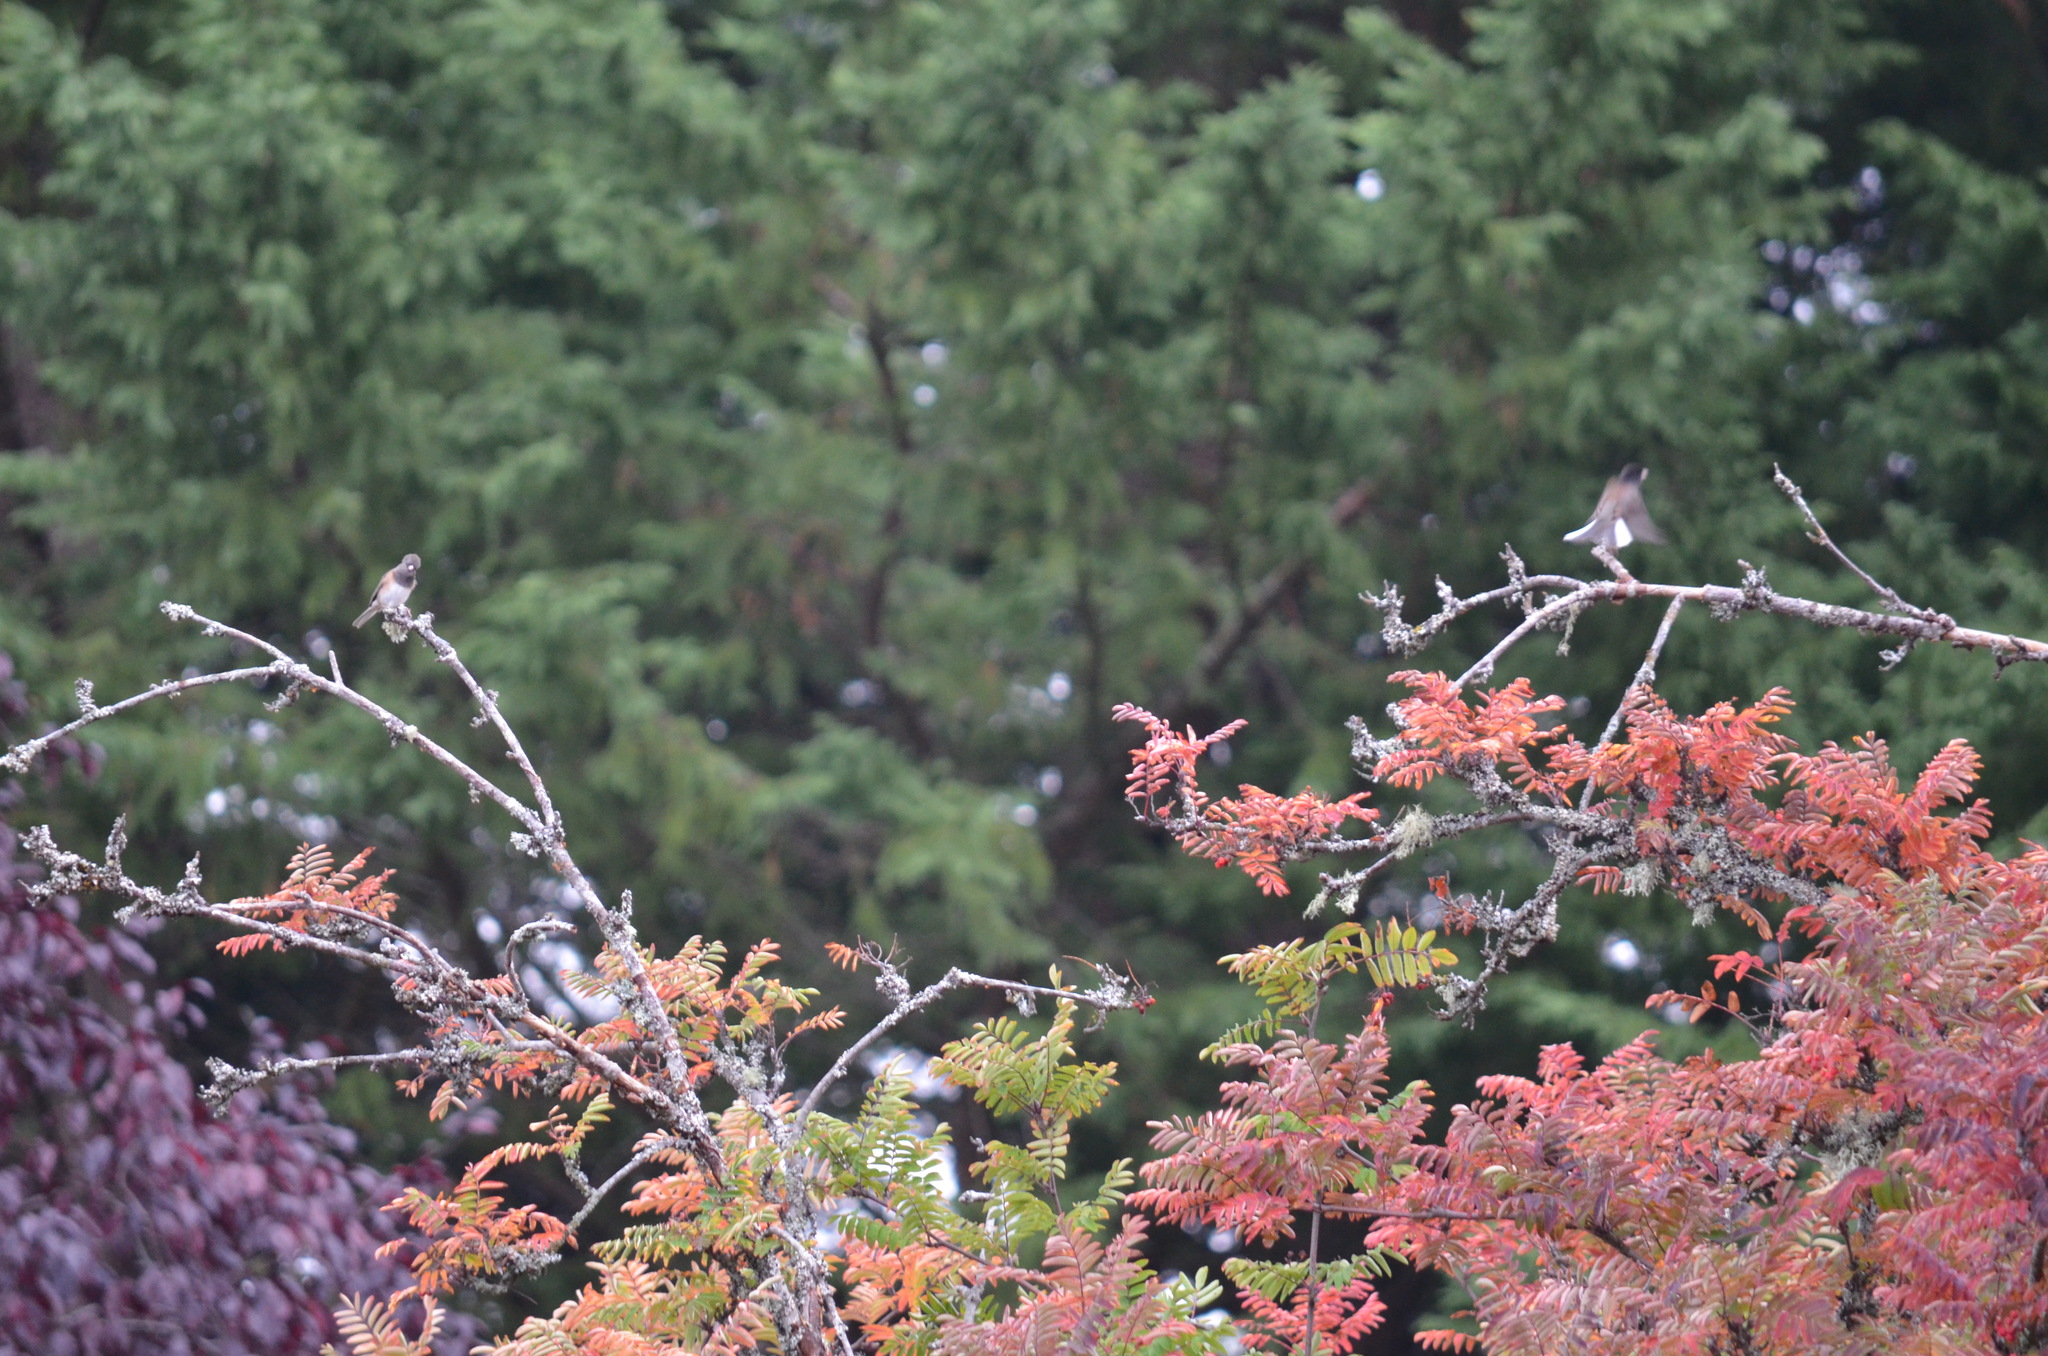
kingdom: Animalia
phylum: Chordata
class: Aves
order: Passeriformes
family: Passerellidae
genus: Junco
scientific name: Junco hyemalis
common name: Dark-eyed junco
